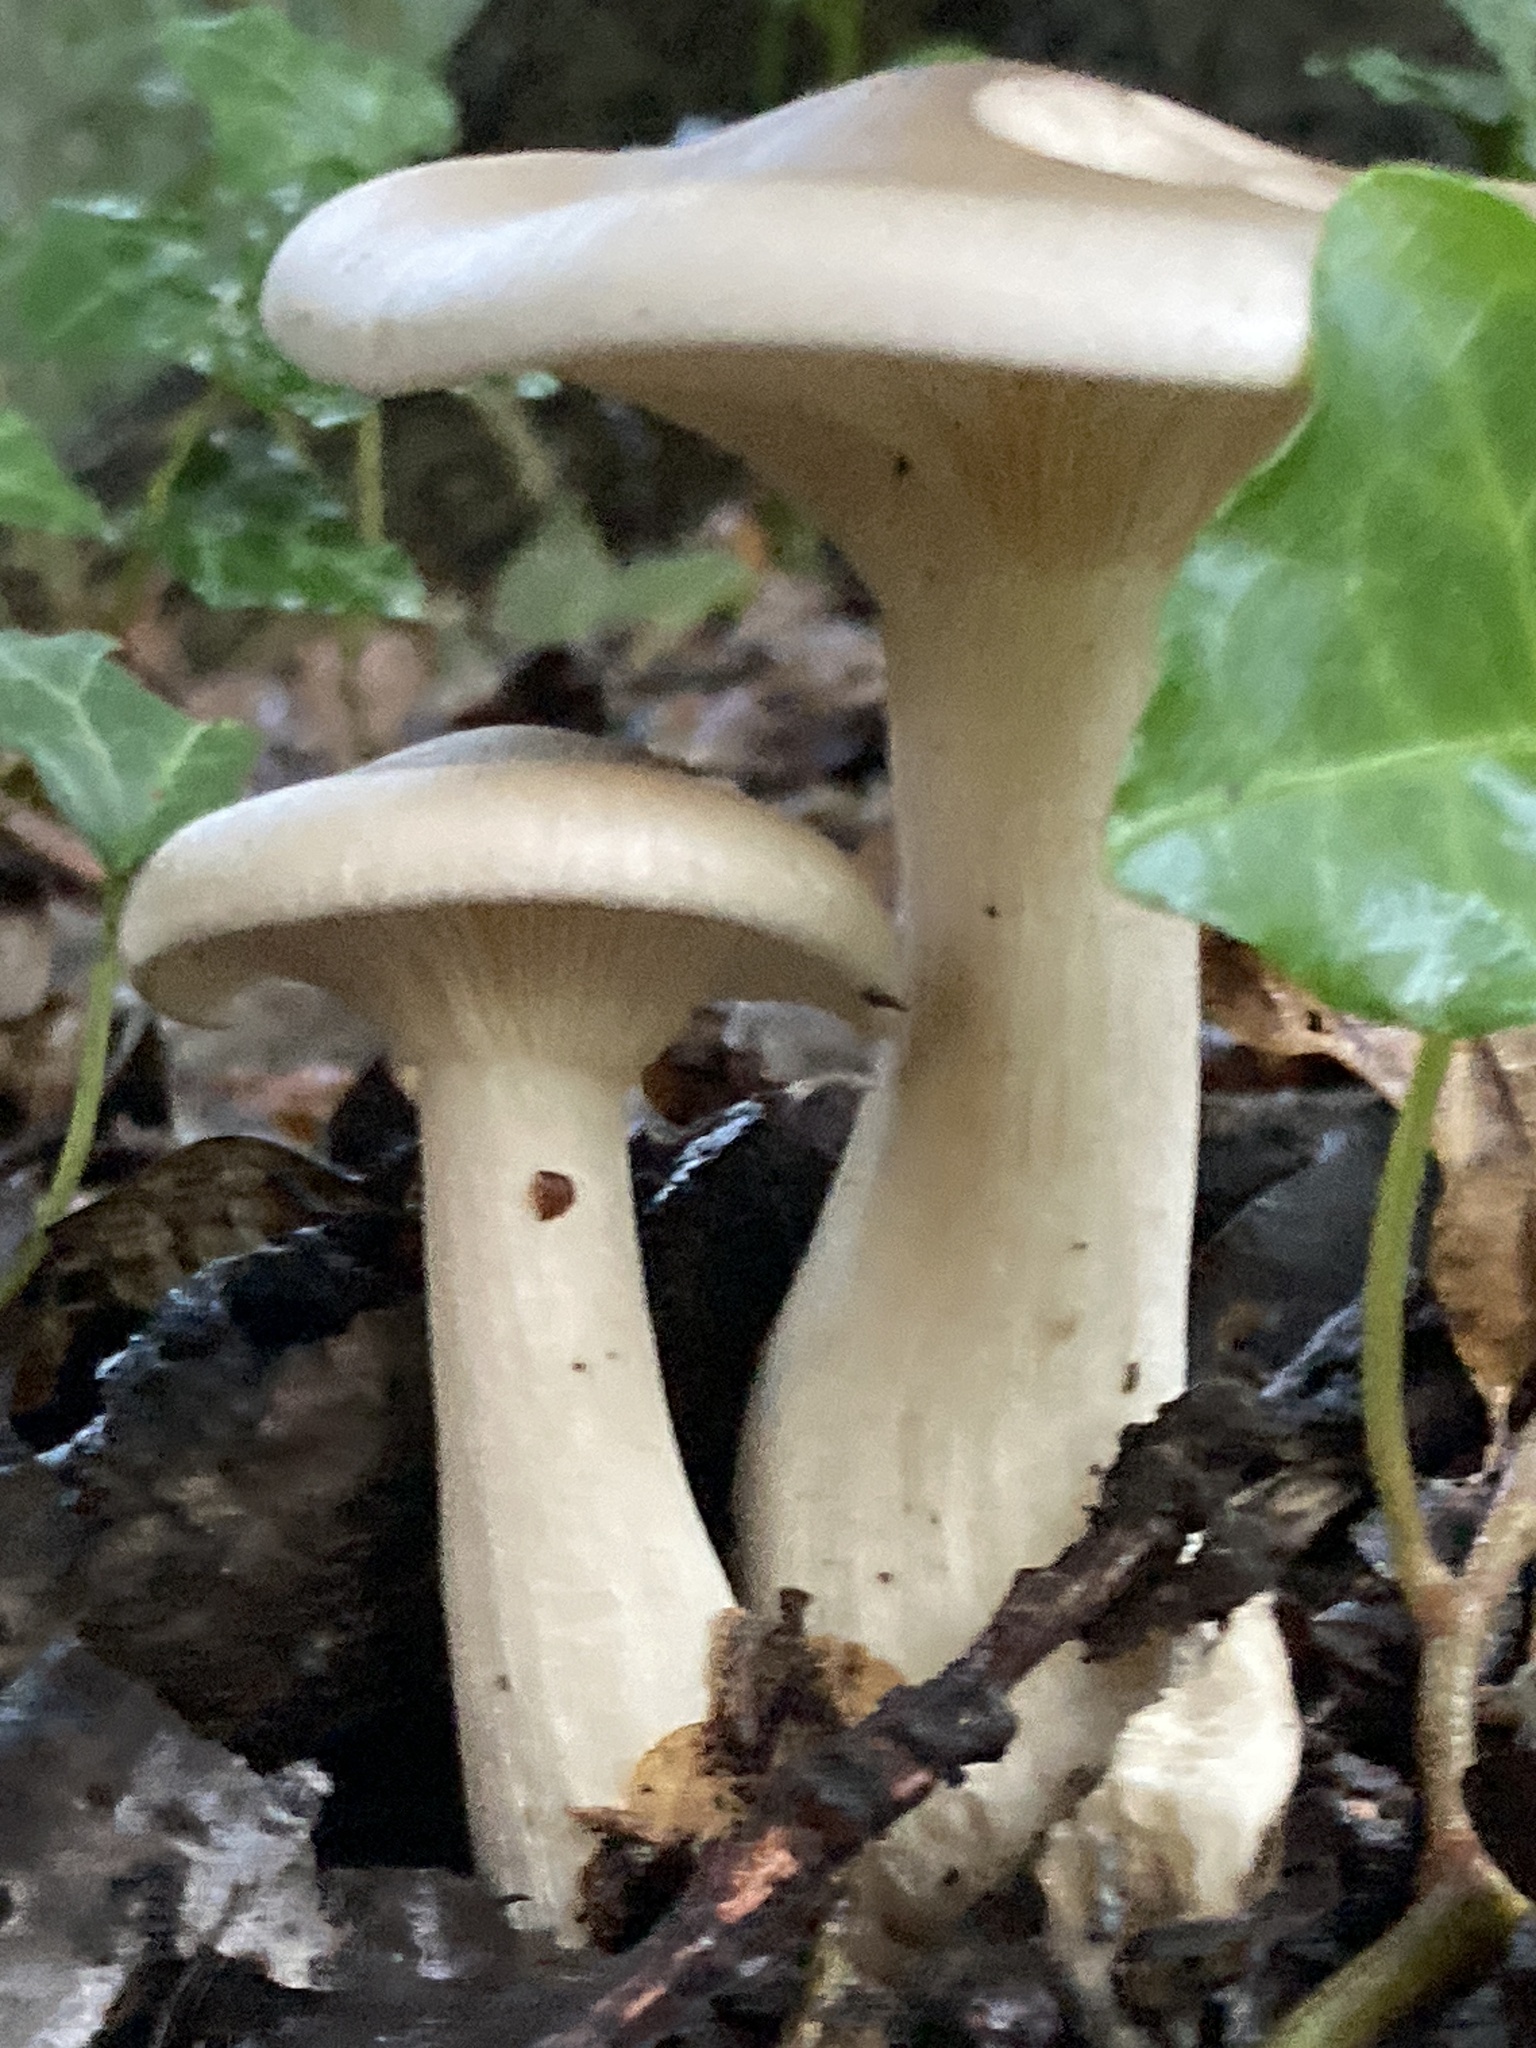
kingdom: Fungi
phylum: Basidiomycota
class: Agaricomycetes
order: Agaricales
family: Tricholomataceae
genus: Clitocybe
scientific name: Clitocybe nebularis
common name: Clouded agaric
